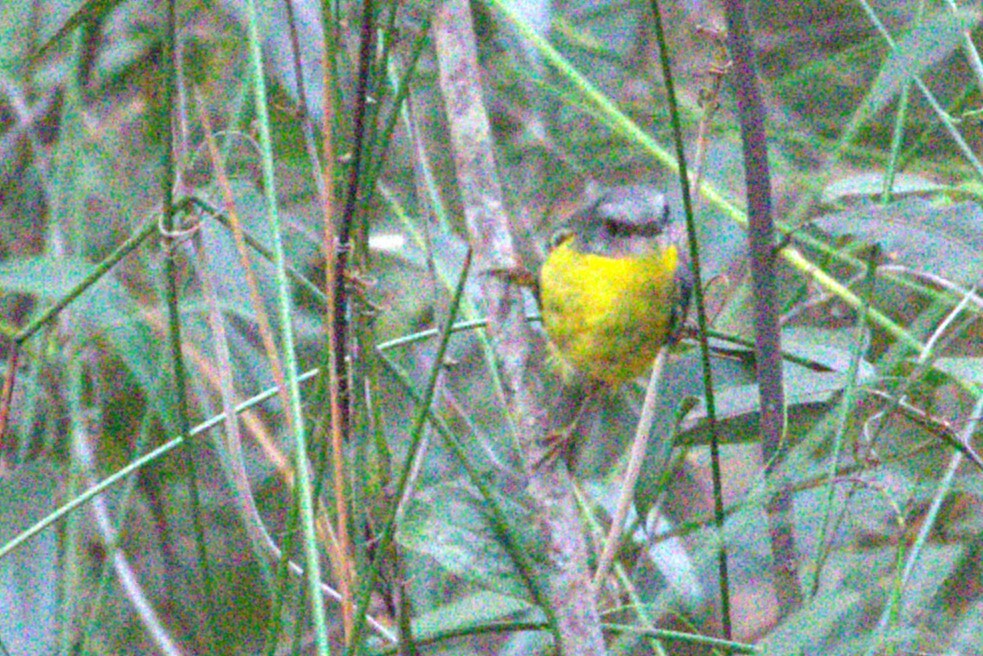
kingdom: Animalia
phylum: Chordata
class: Aves
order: Passeriformes
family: Petroicidae
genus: Eopsaltria
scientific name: Eopsaltria australis
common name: Eastern yellow robin
